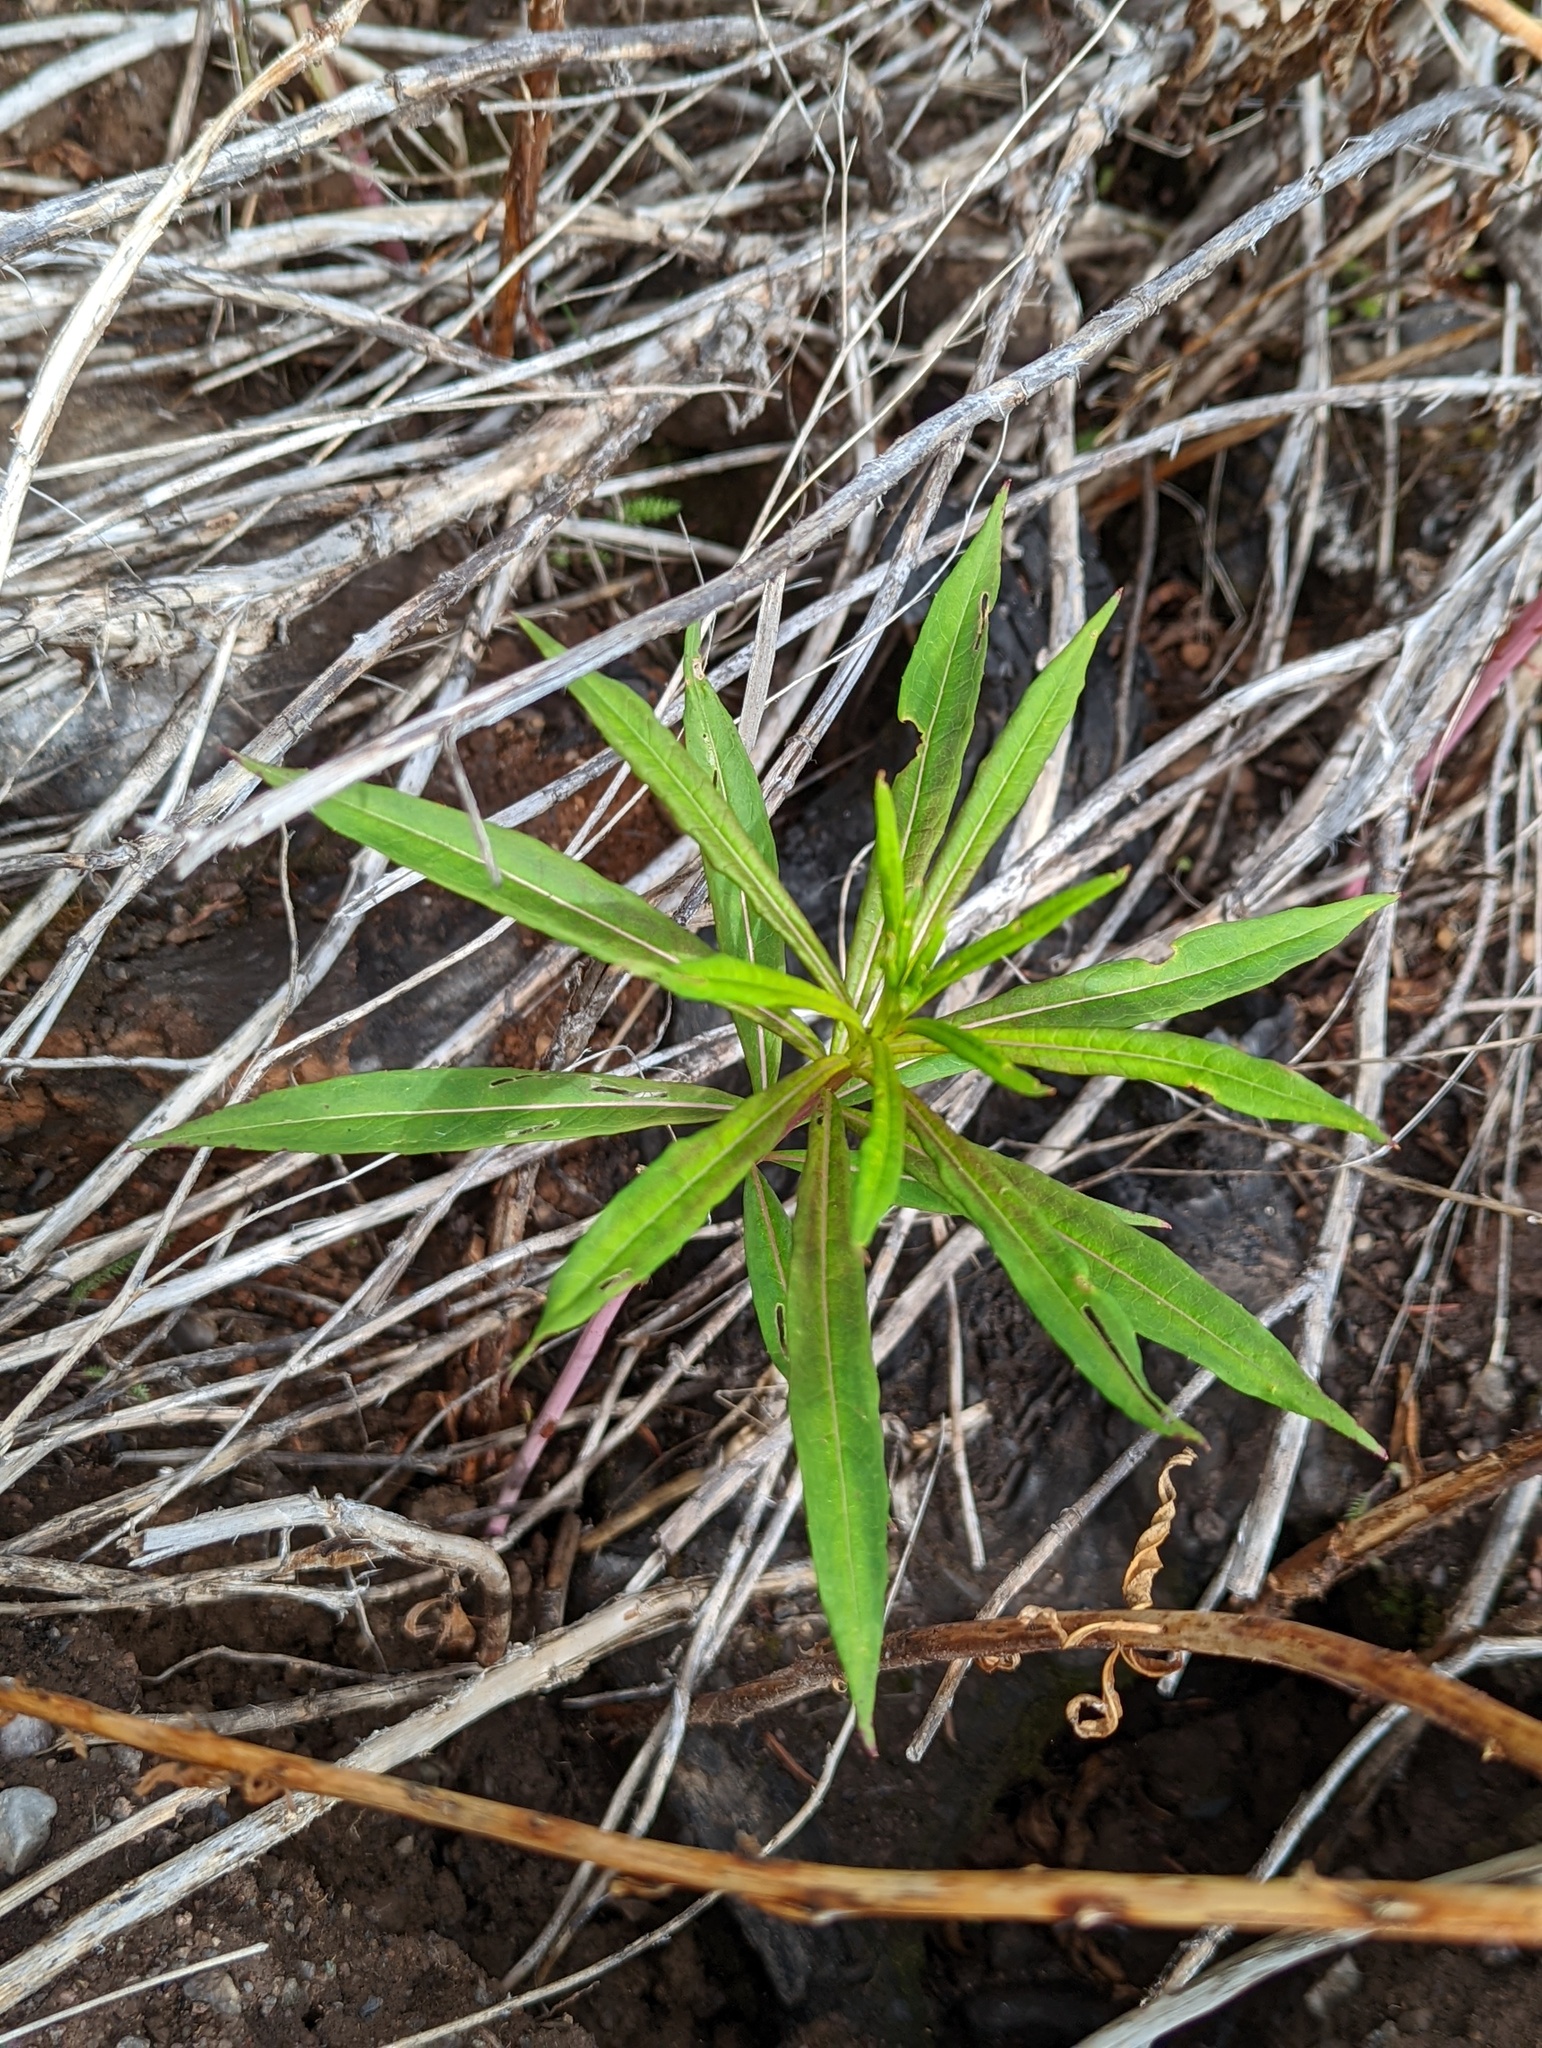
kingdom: Plantae
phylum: Tracheophyta
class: Magnoliopsida
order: Myrtales
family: Onagraceae
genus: Chamaenerion
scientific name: Chamaenerion angustifolium
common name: Fireweed
